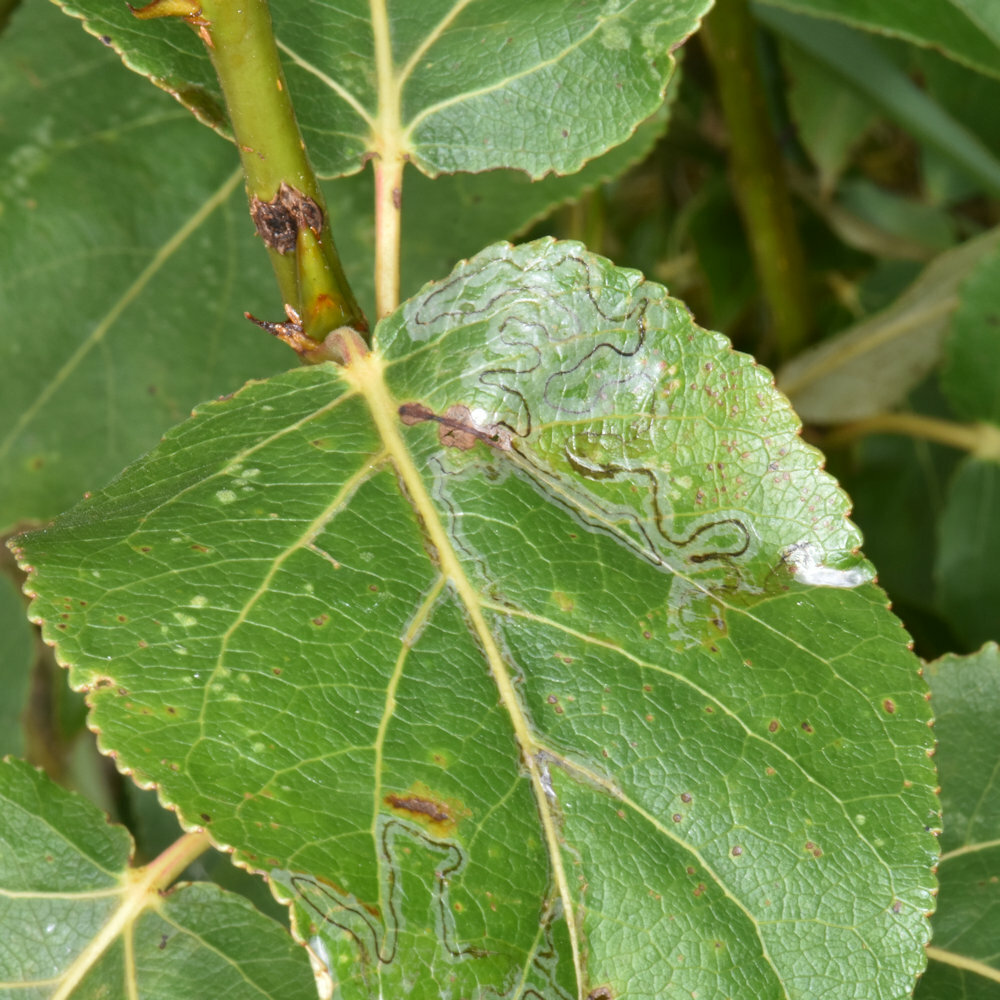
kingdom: Animalia
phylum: Arthropoda
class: Insecta
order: Lepidoptera
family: Gracillariidae
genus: Phyllocnistis
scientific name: Phyllocnistis populiella
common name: Aspen serpentine leafminer moth
